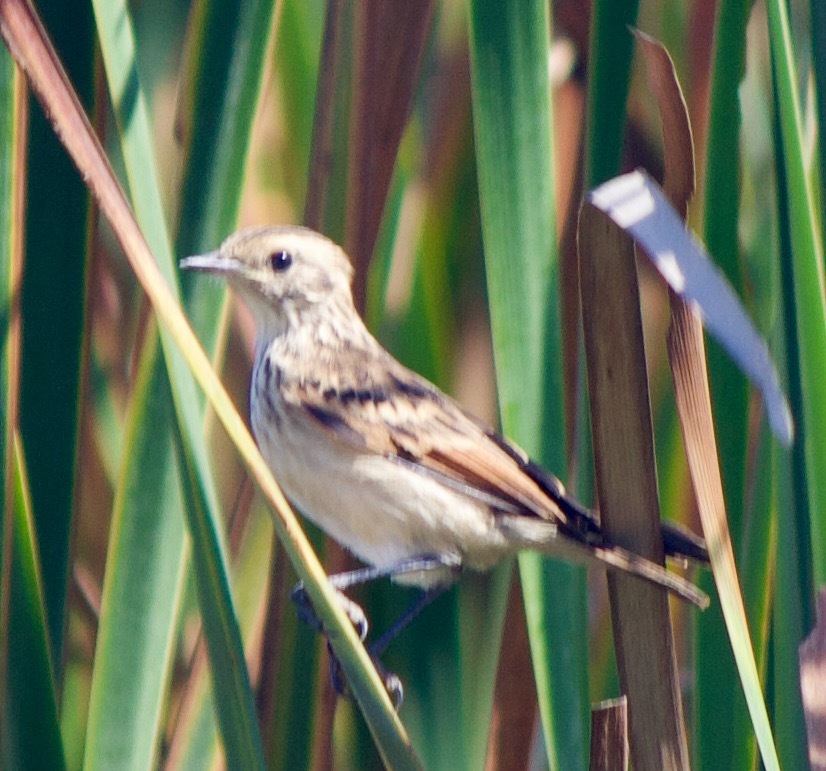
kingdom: Animalia
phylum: Chordata
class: Aves
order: Passeriformes
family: Tyrannidae
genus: Hymenops
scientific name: Hymenops perspicillatus
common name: Spectacled tyrant
